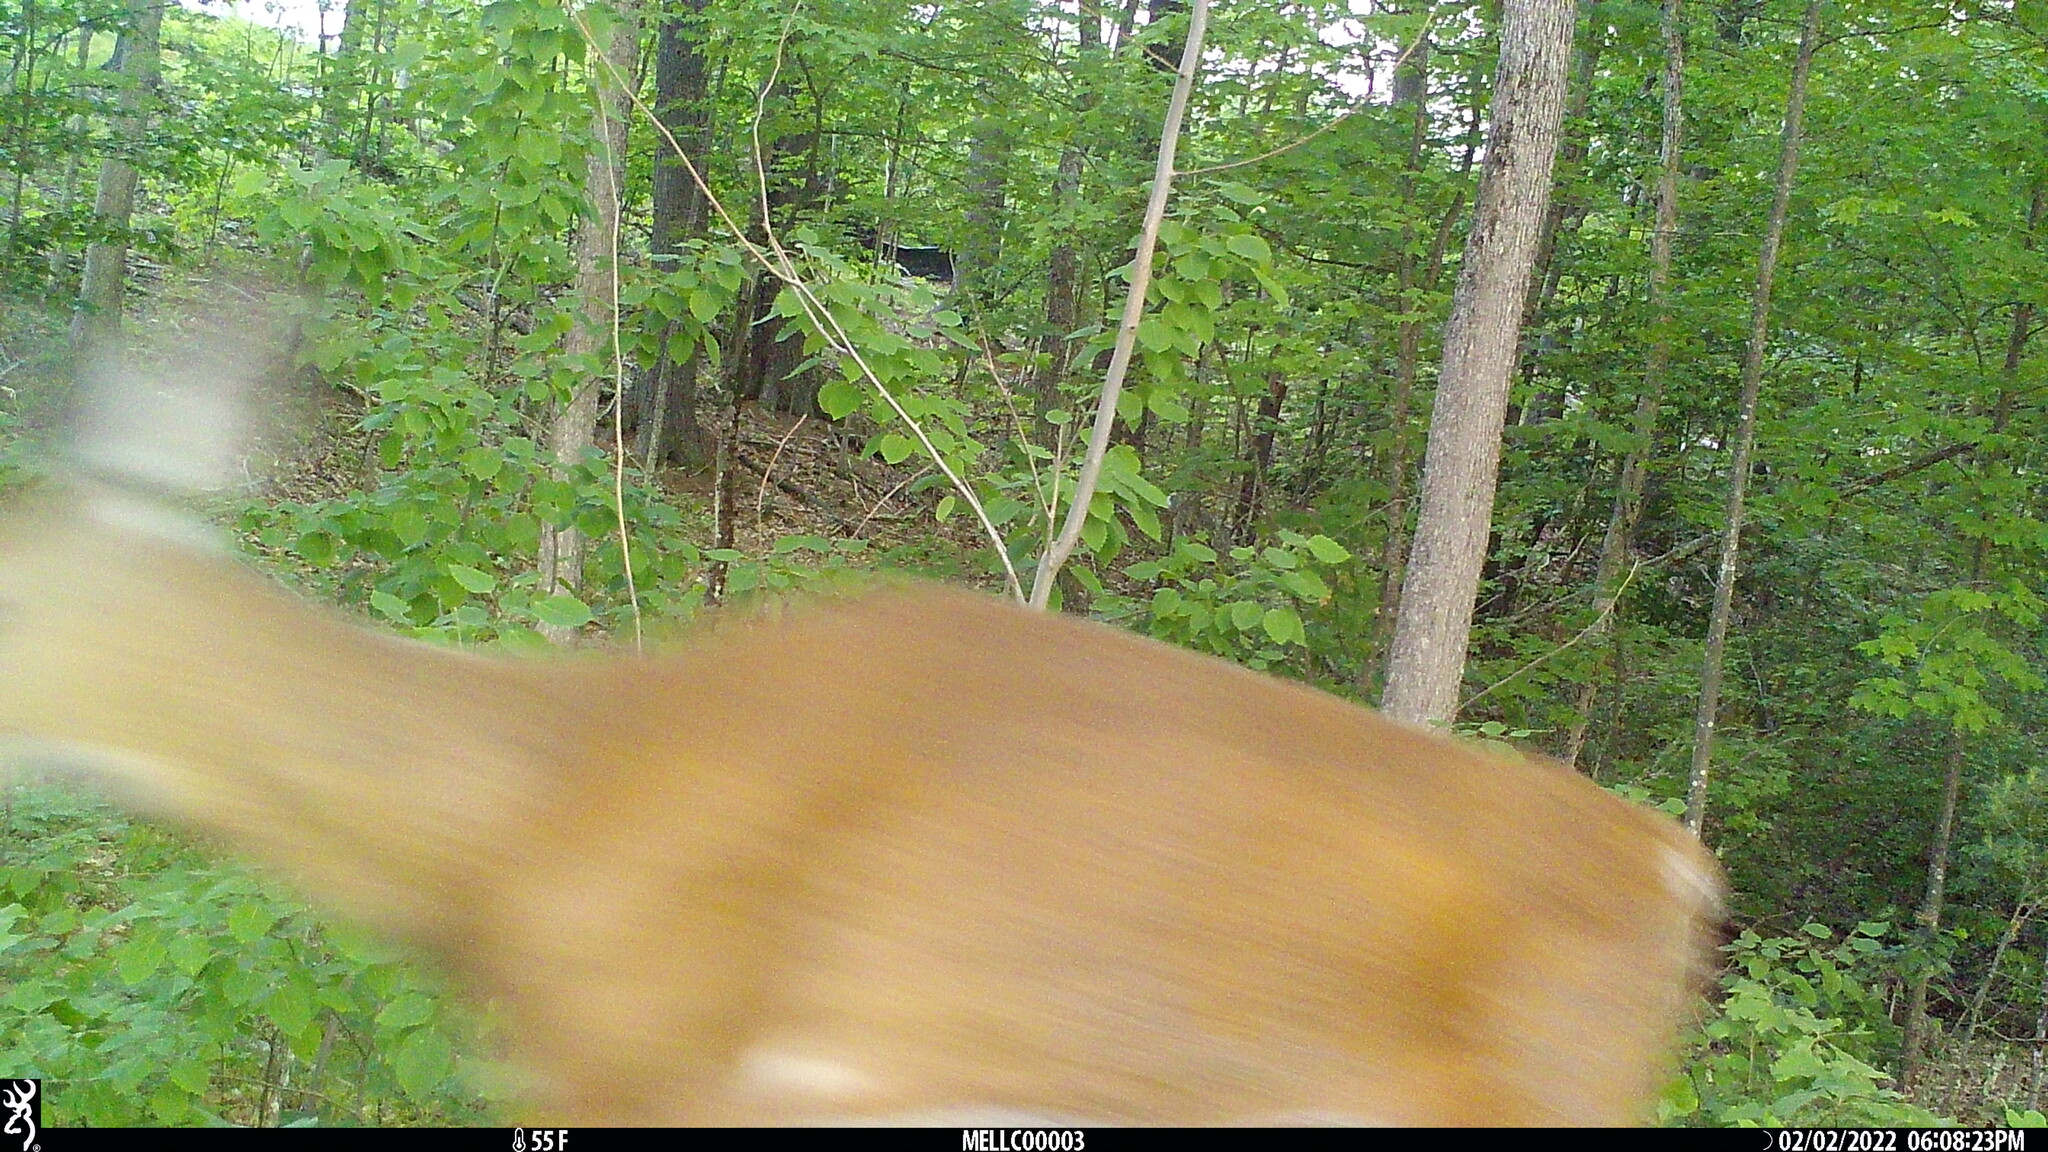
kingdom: Animalia
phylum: Chordata
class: Mammalia
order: Artiodactyla
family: Cervidae
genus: Odocoileus
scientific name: Odocoileus virginianus
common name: White-tailed deer
